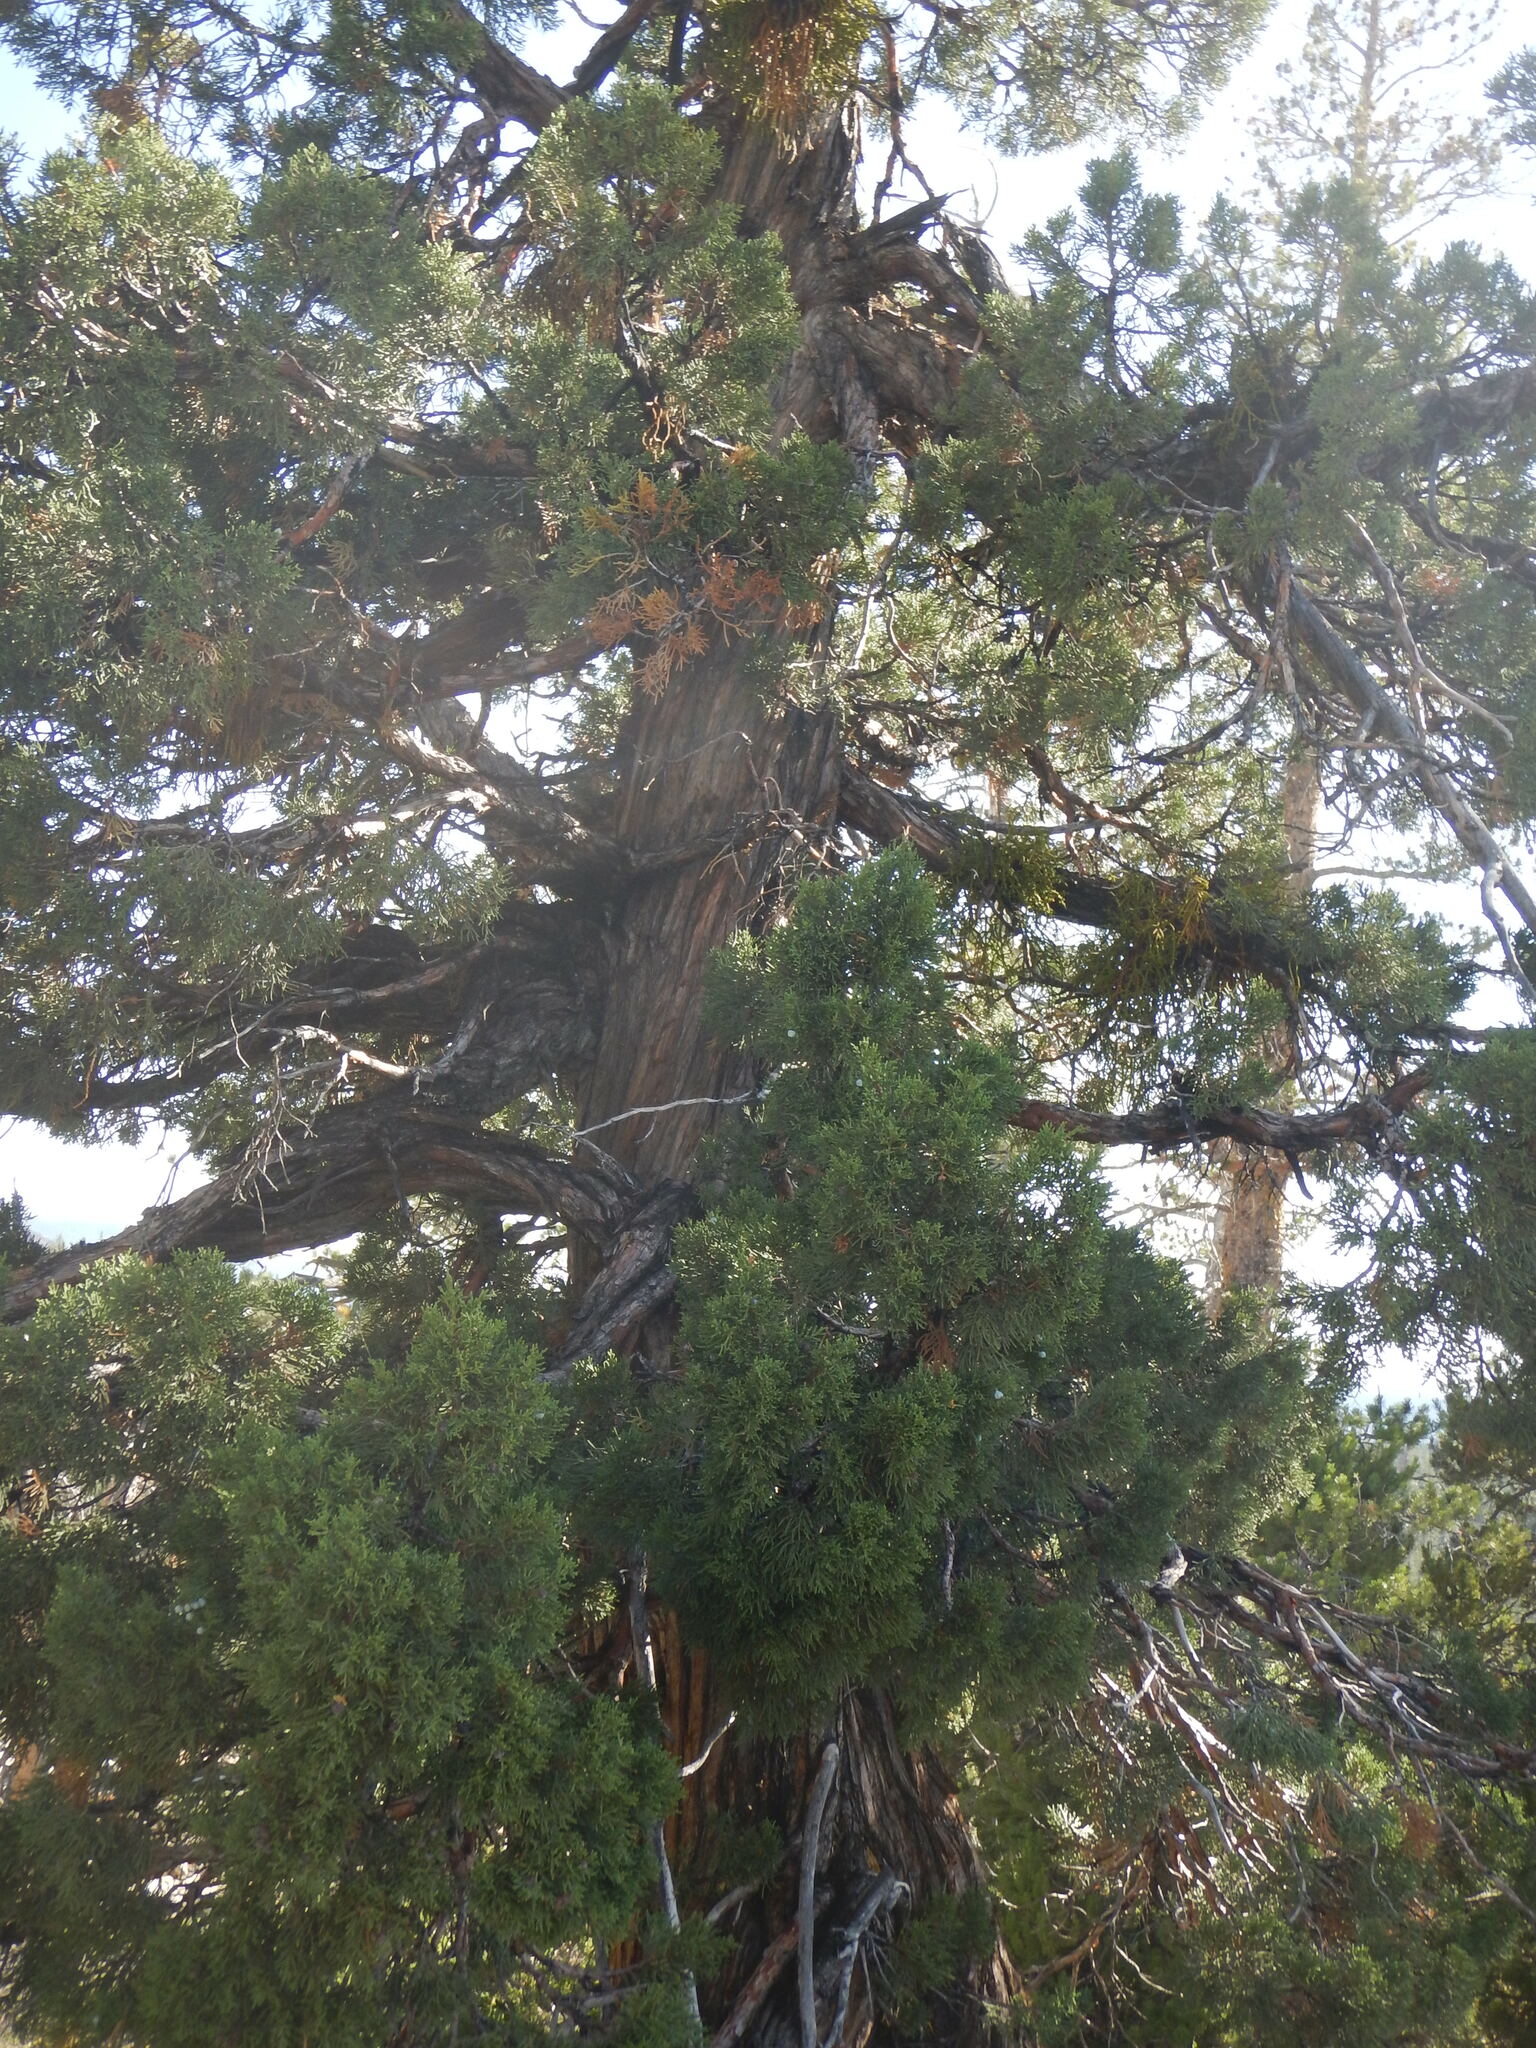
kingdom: Plantae
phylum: Tracheophyta
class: Pinopsida
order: Pinales
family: Cupressaceae
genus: Juniperus
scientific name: Juniperus occidentalis
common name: Western juniper
